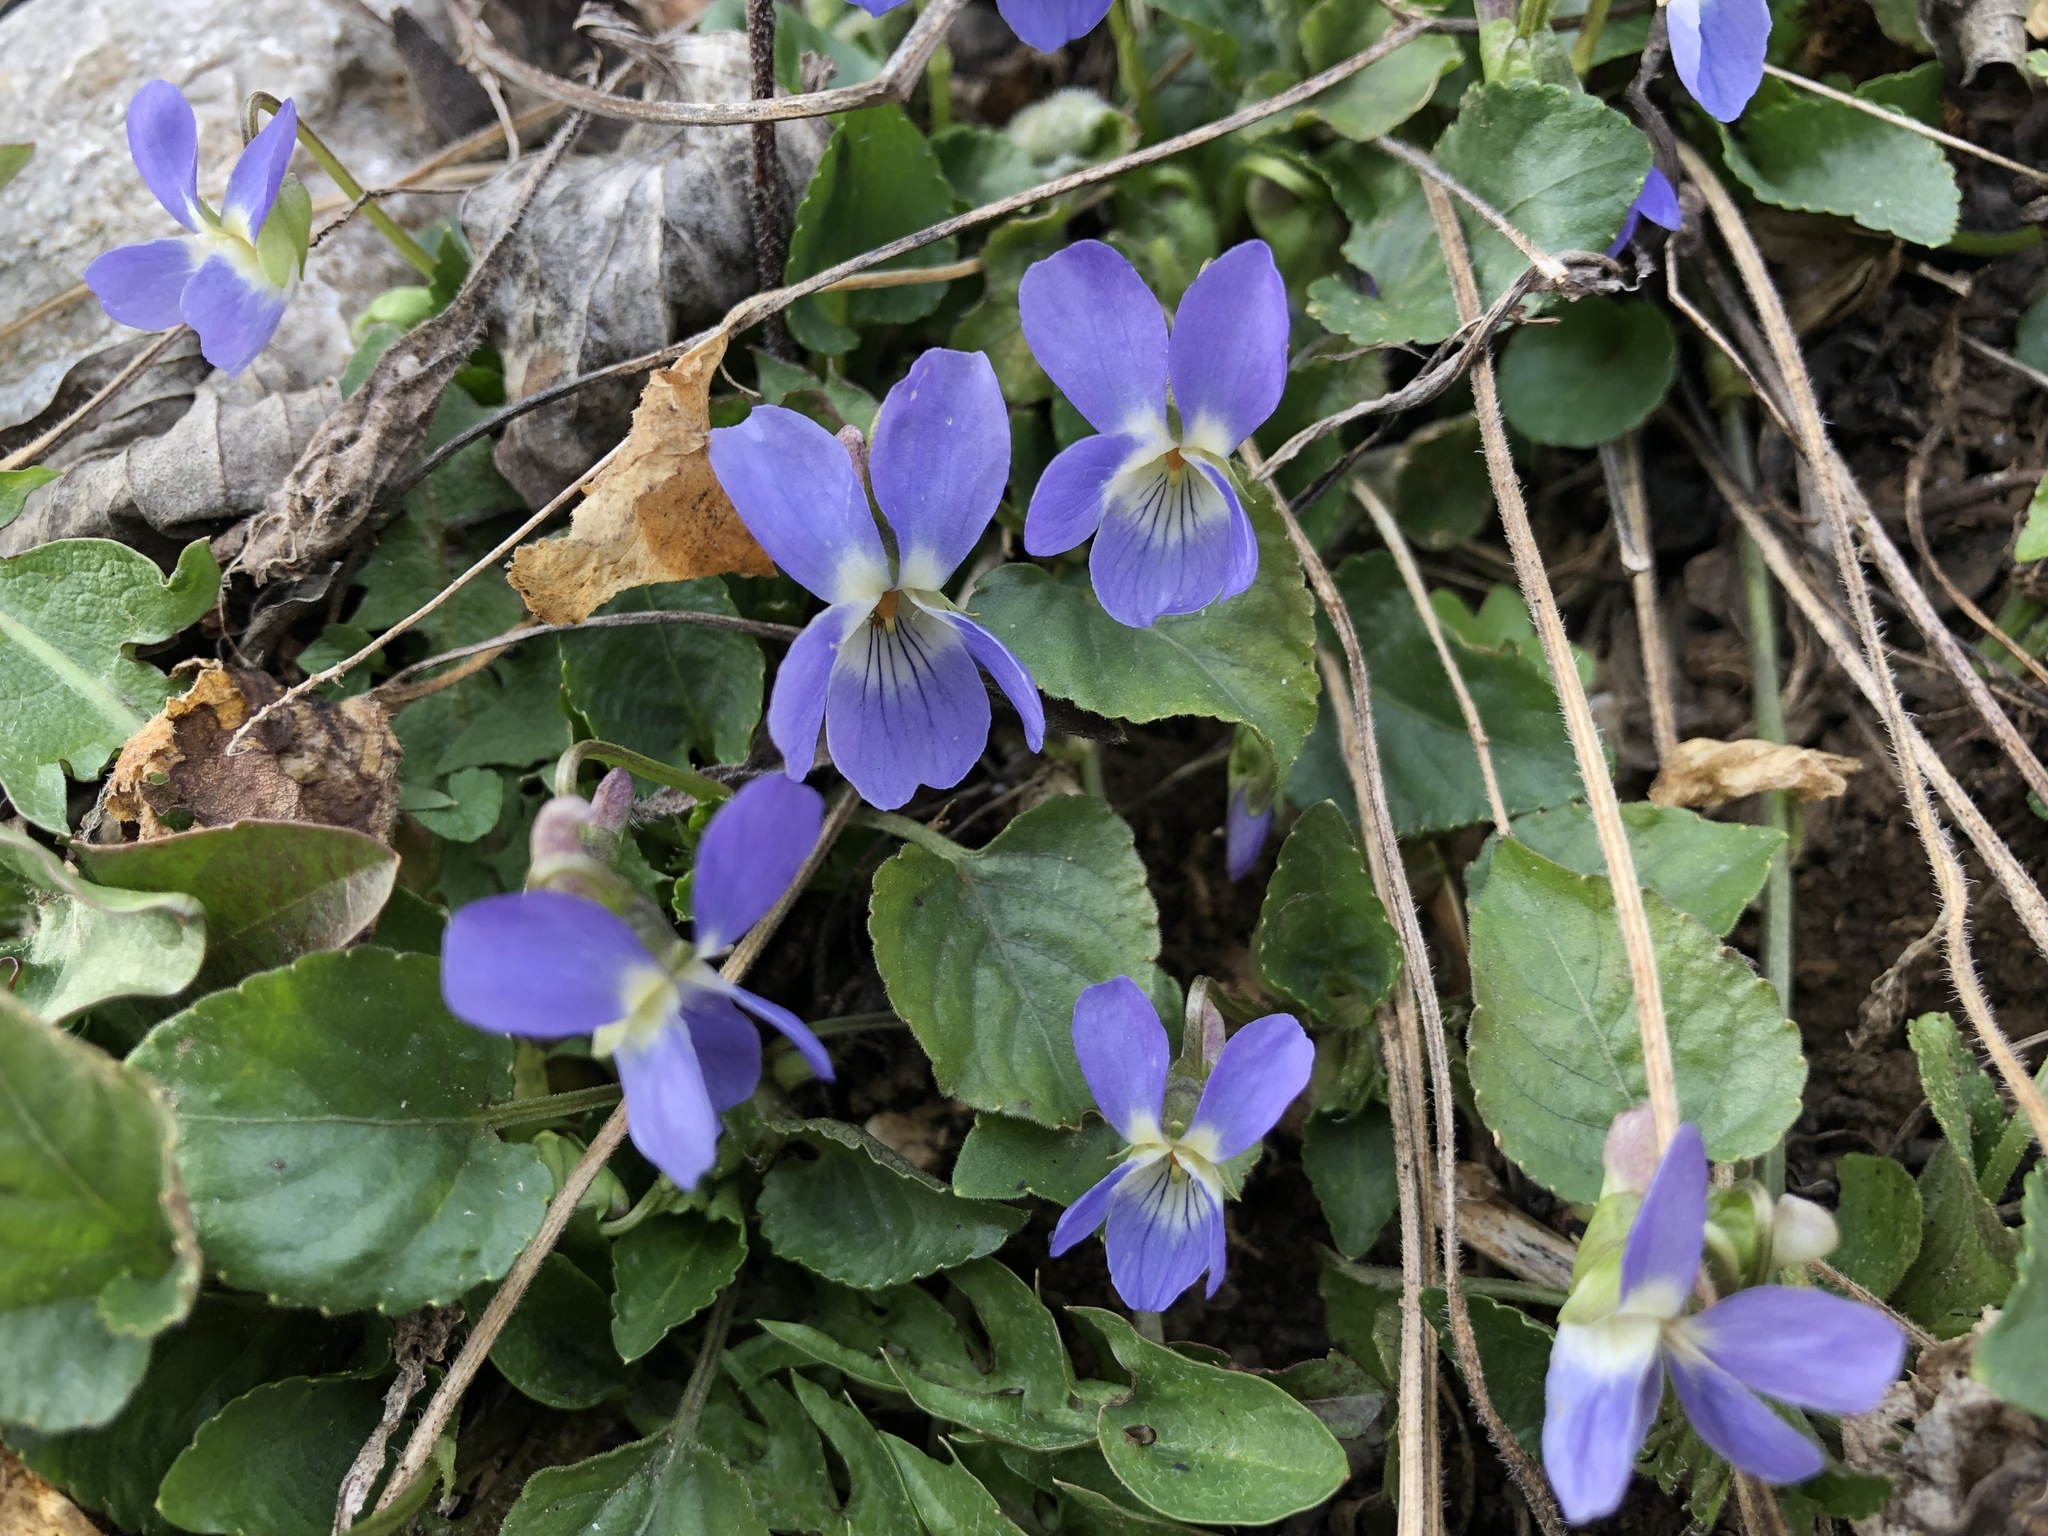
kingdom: Plantae
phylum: Tracheophyta
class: Magnoliopsida
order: Malpighiales
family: Violaceae
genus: Viola
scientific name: Viola hirta
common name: Hairy violet
